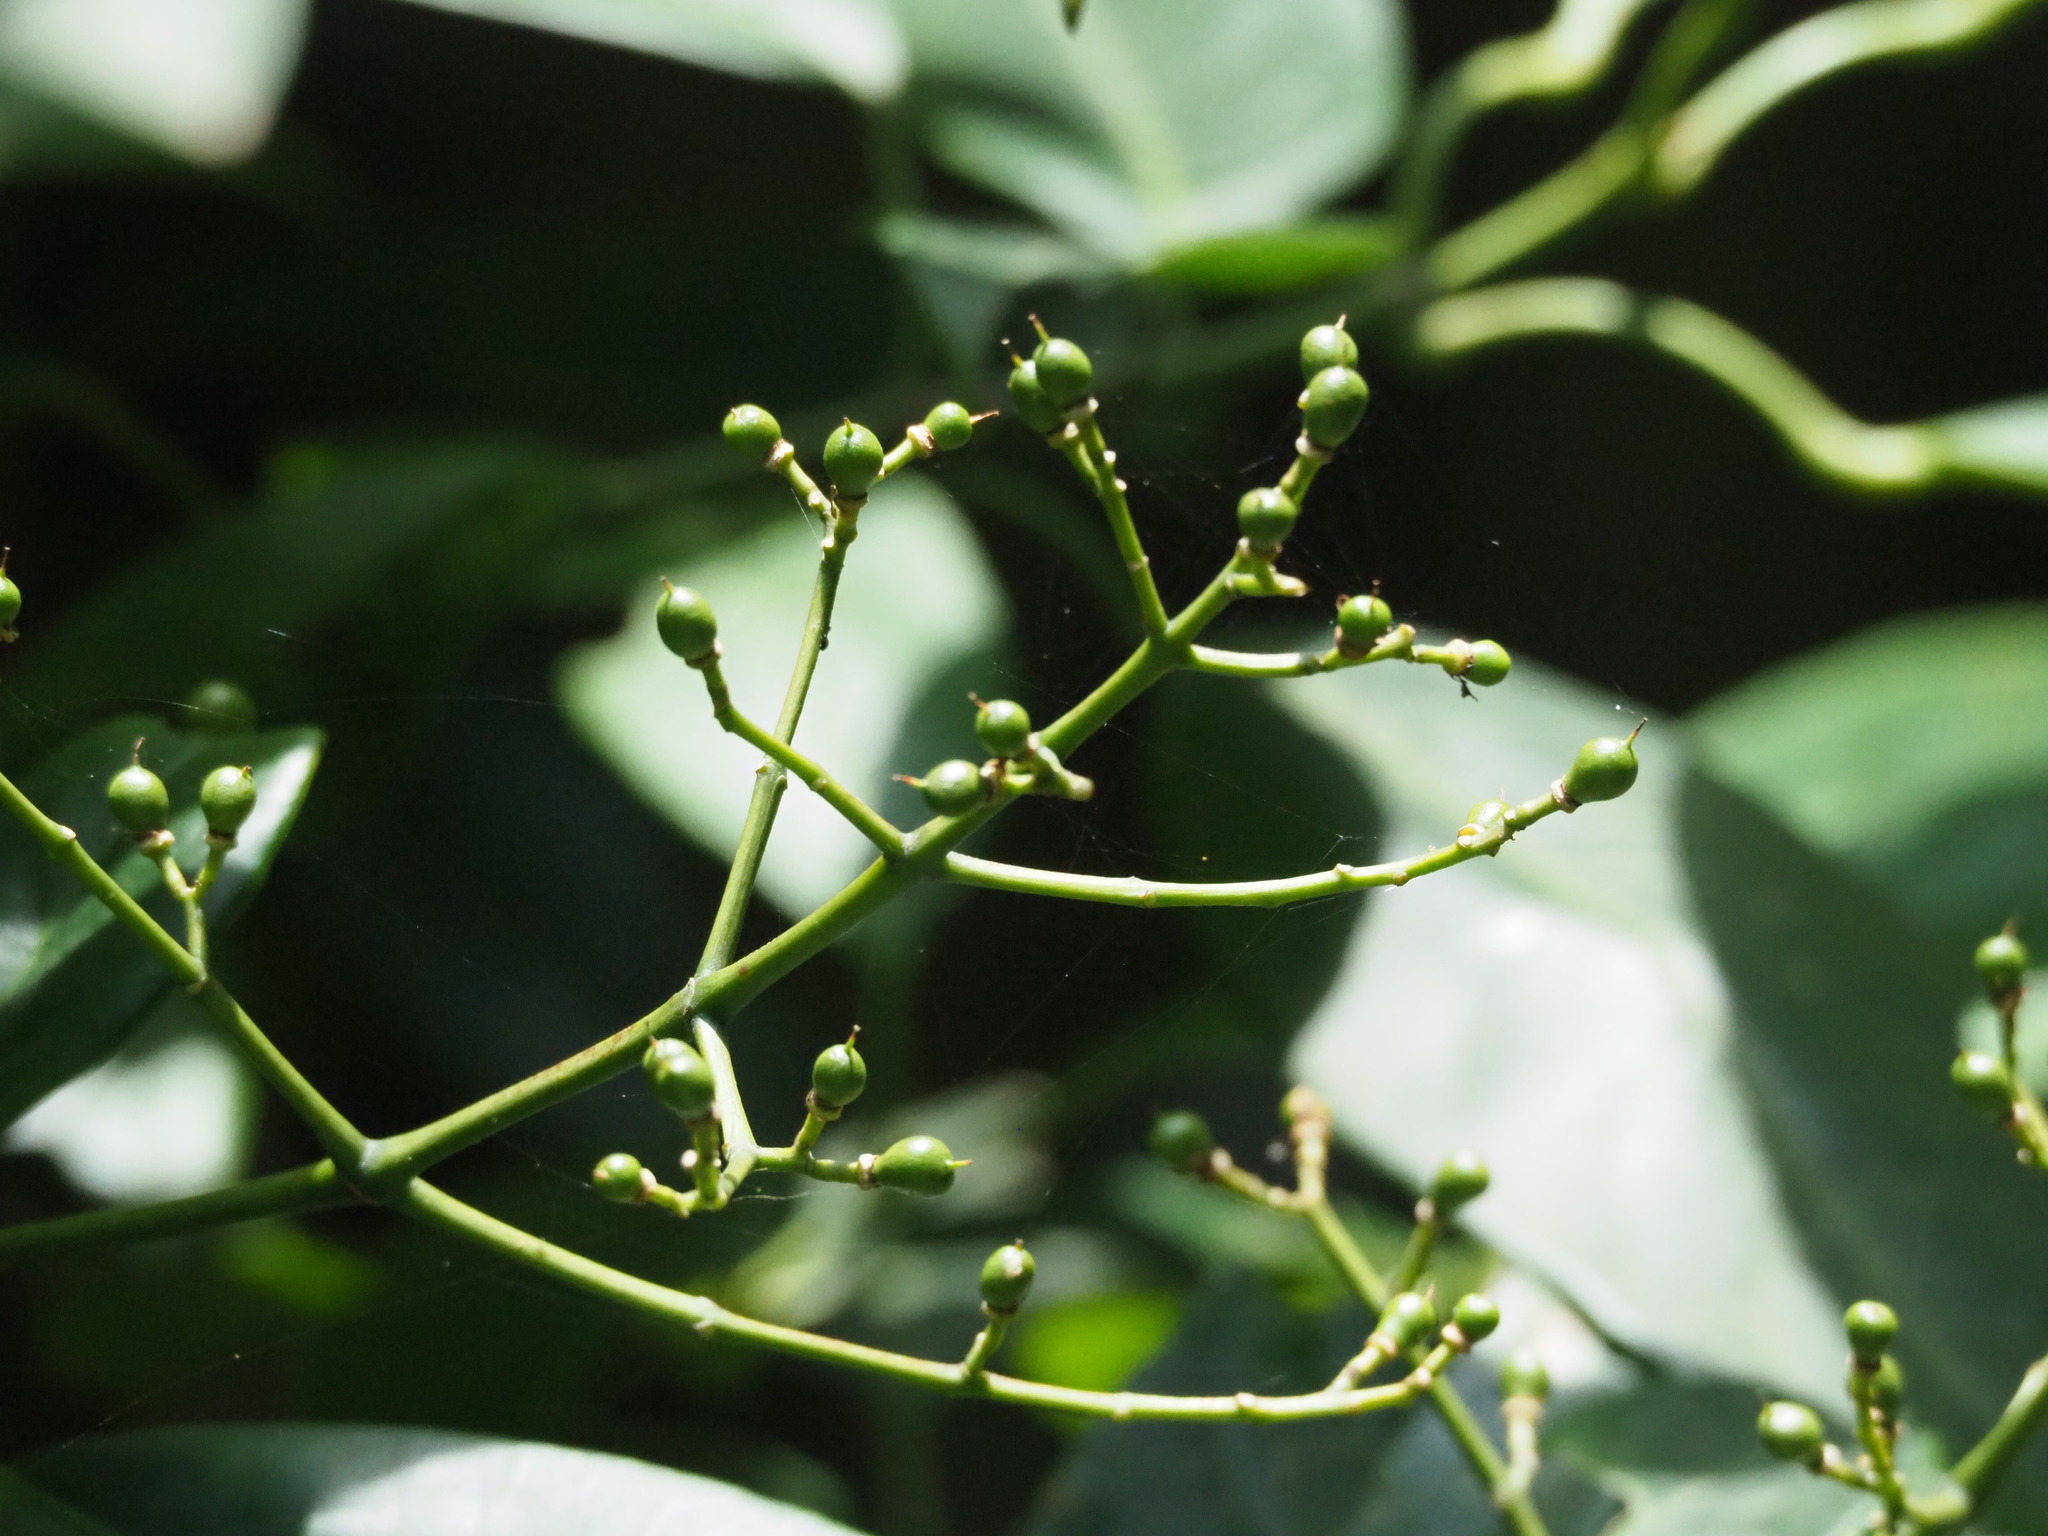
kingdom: Plantae
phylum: Tracheophyta
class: Magnoliopsida
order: Crossosomatales
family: Staphyleaceae
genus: Turpinia
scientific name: Turpinia formosana
